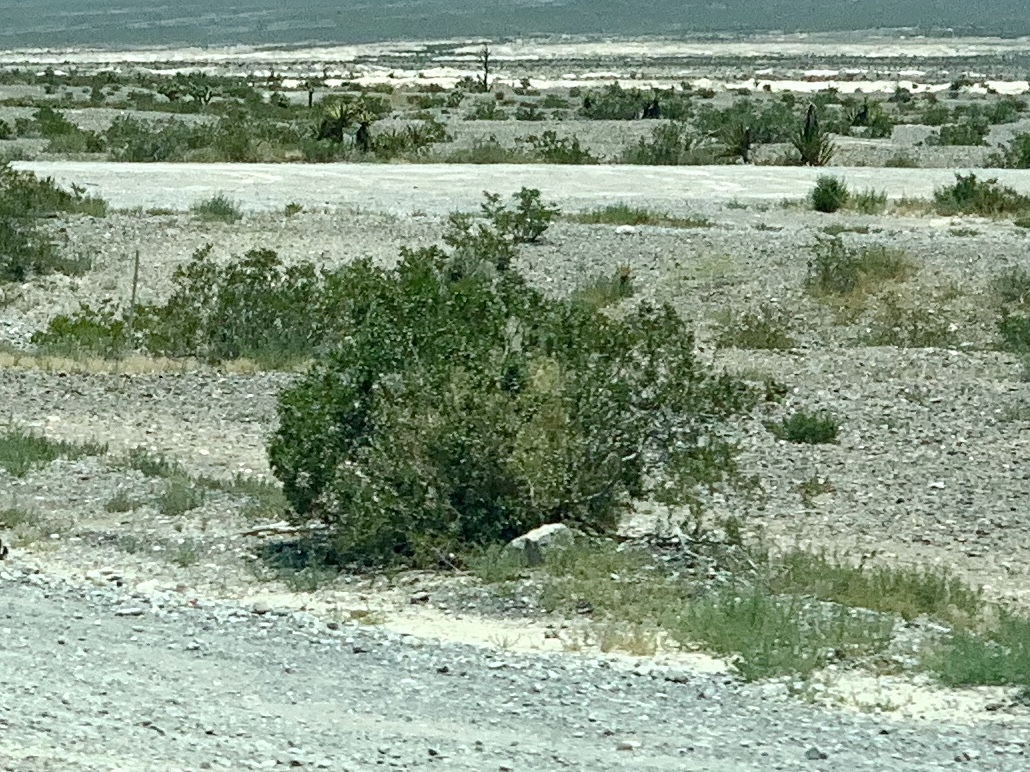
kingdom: Plantae
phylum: Tracheophyta
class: Magnoliopsida
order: Zygophyllales
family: Zygophyllaceae
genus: Larrea
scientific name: Larrea tridentata
